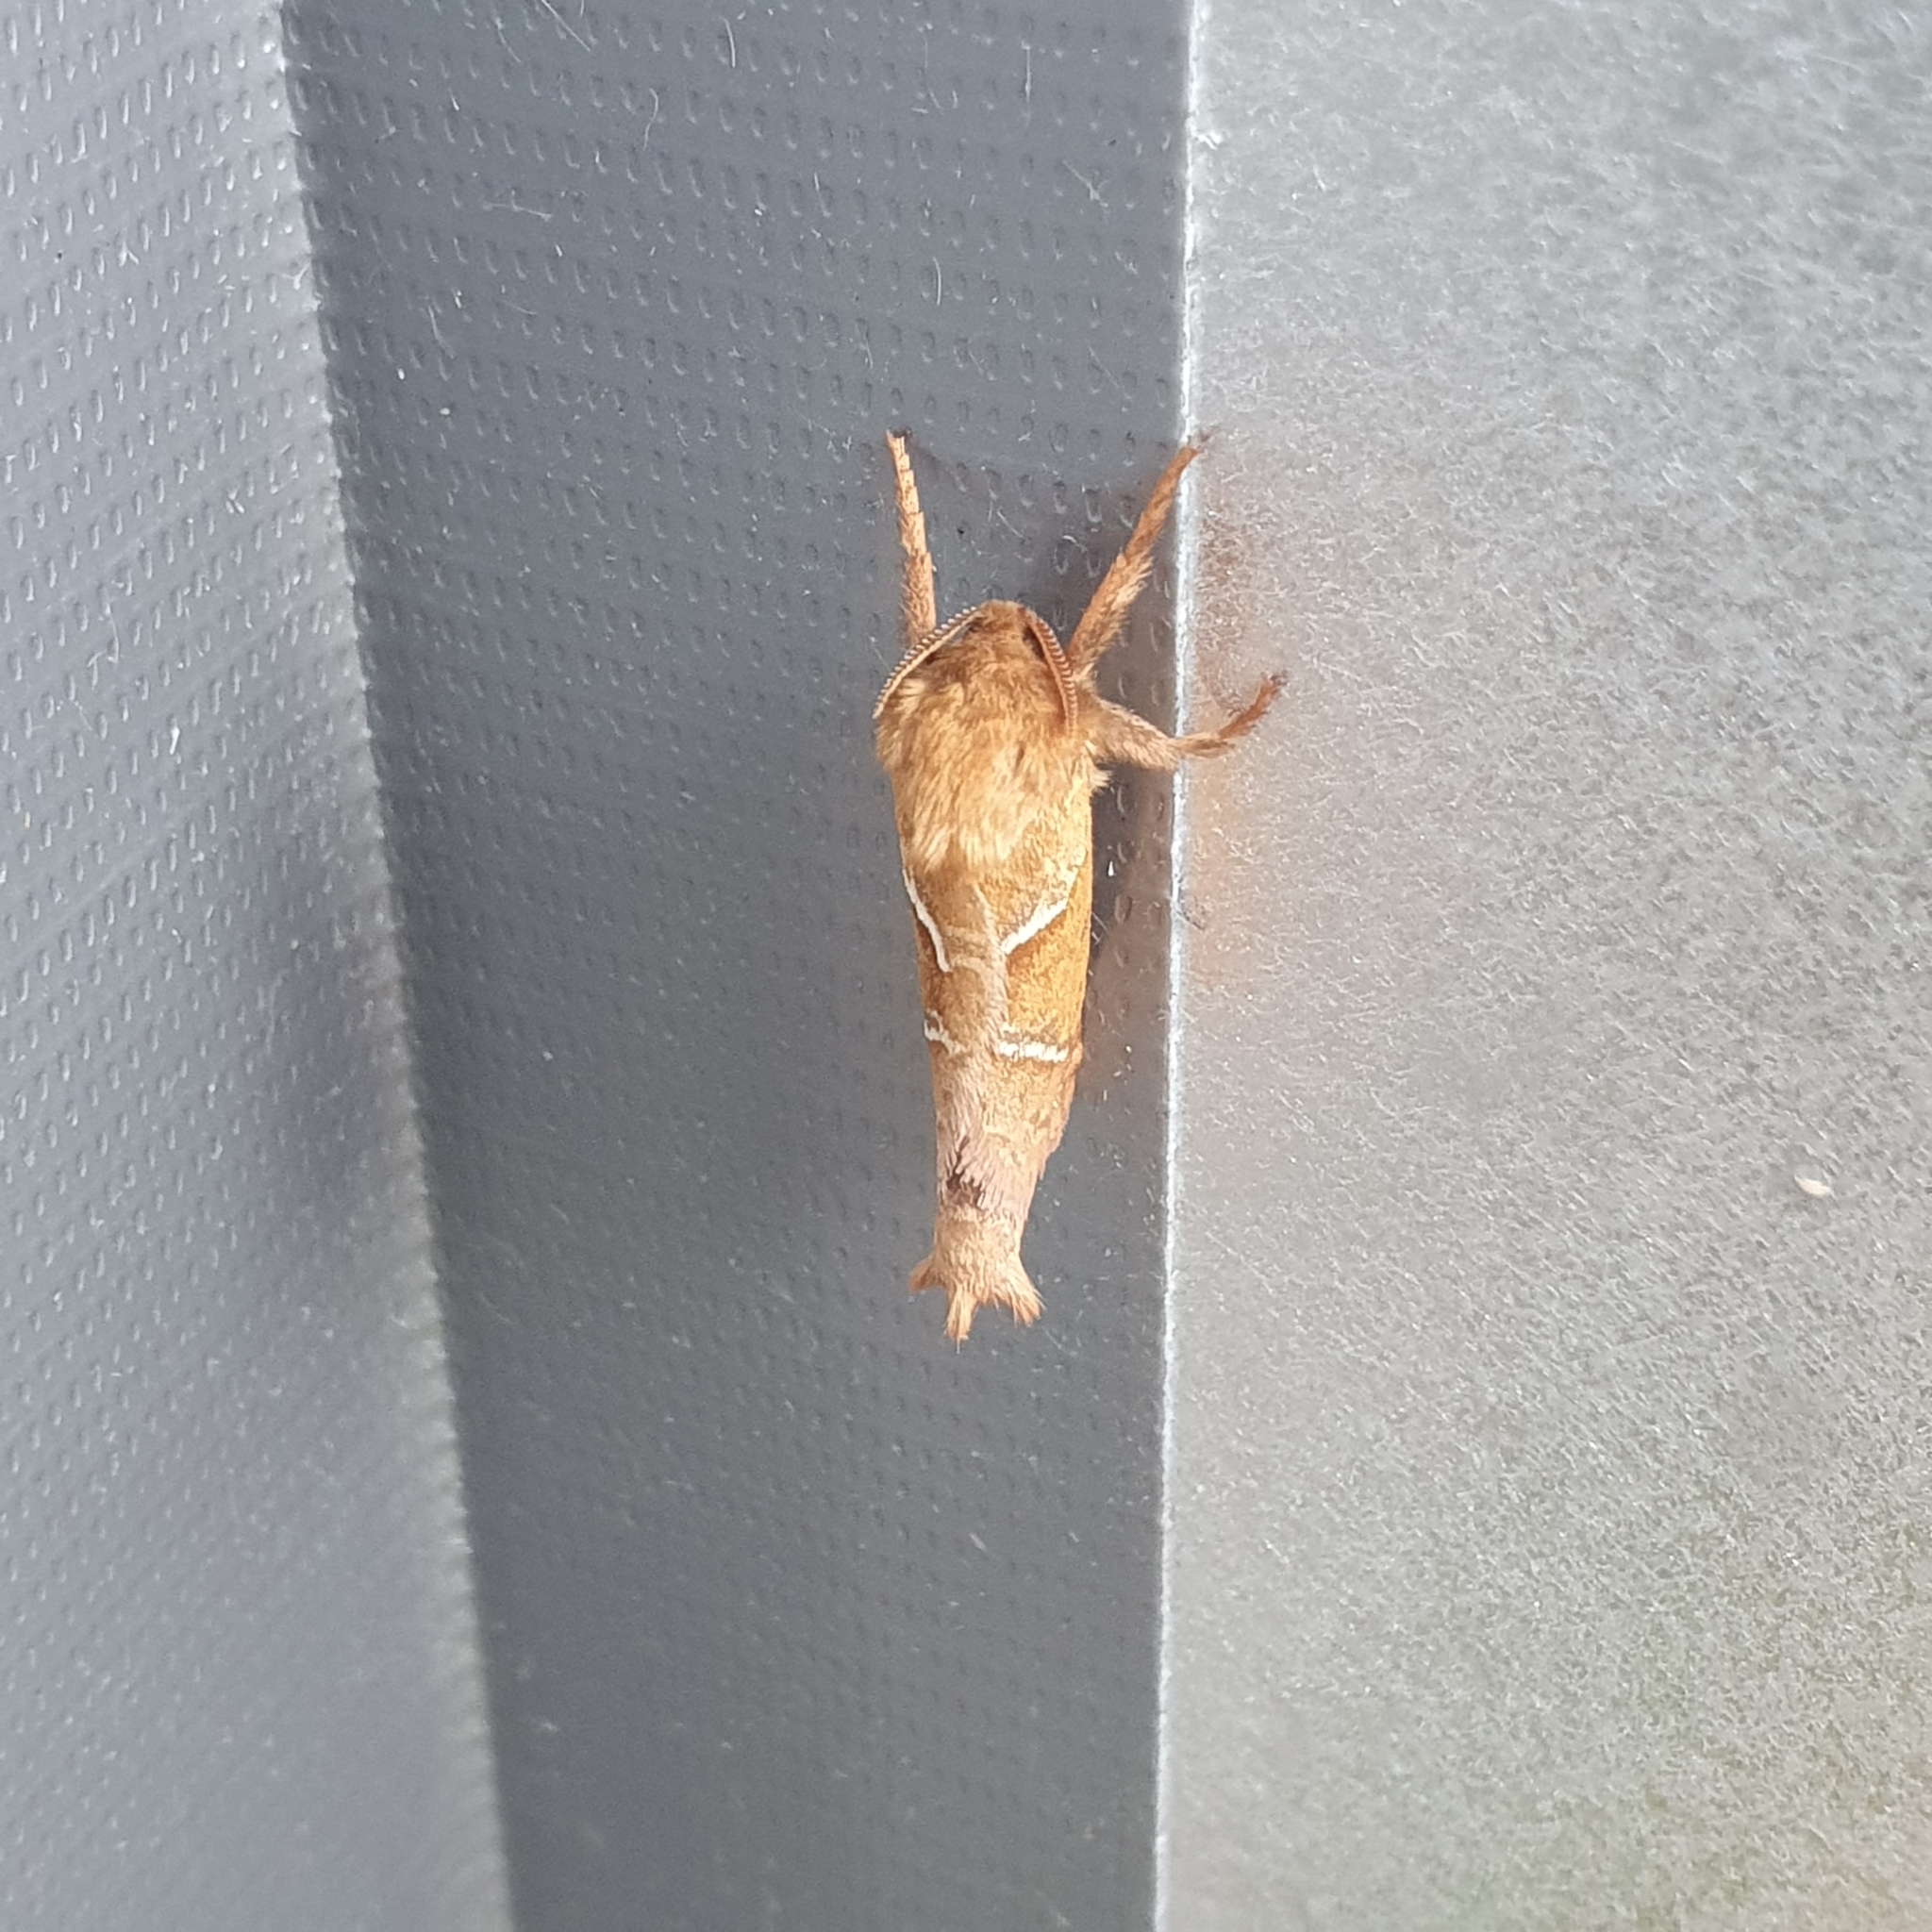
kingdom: Animalia
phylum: Arthropoda
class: Insecta
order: Lepidoptera
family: Hepialidae
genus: Triodia
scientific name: Triodia sylvina
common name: Orange swift
